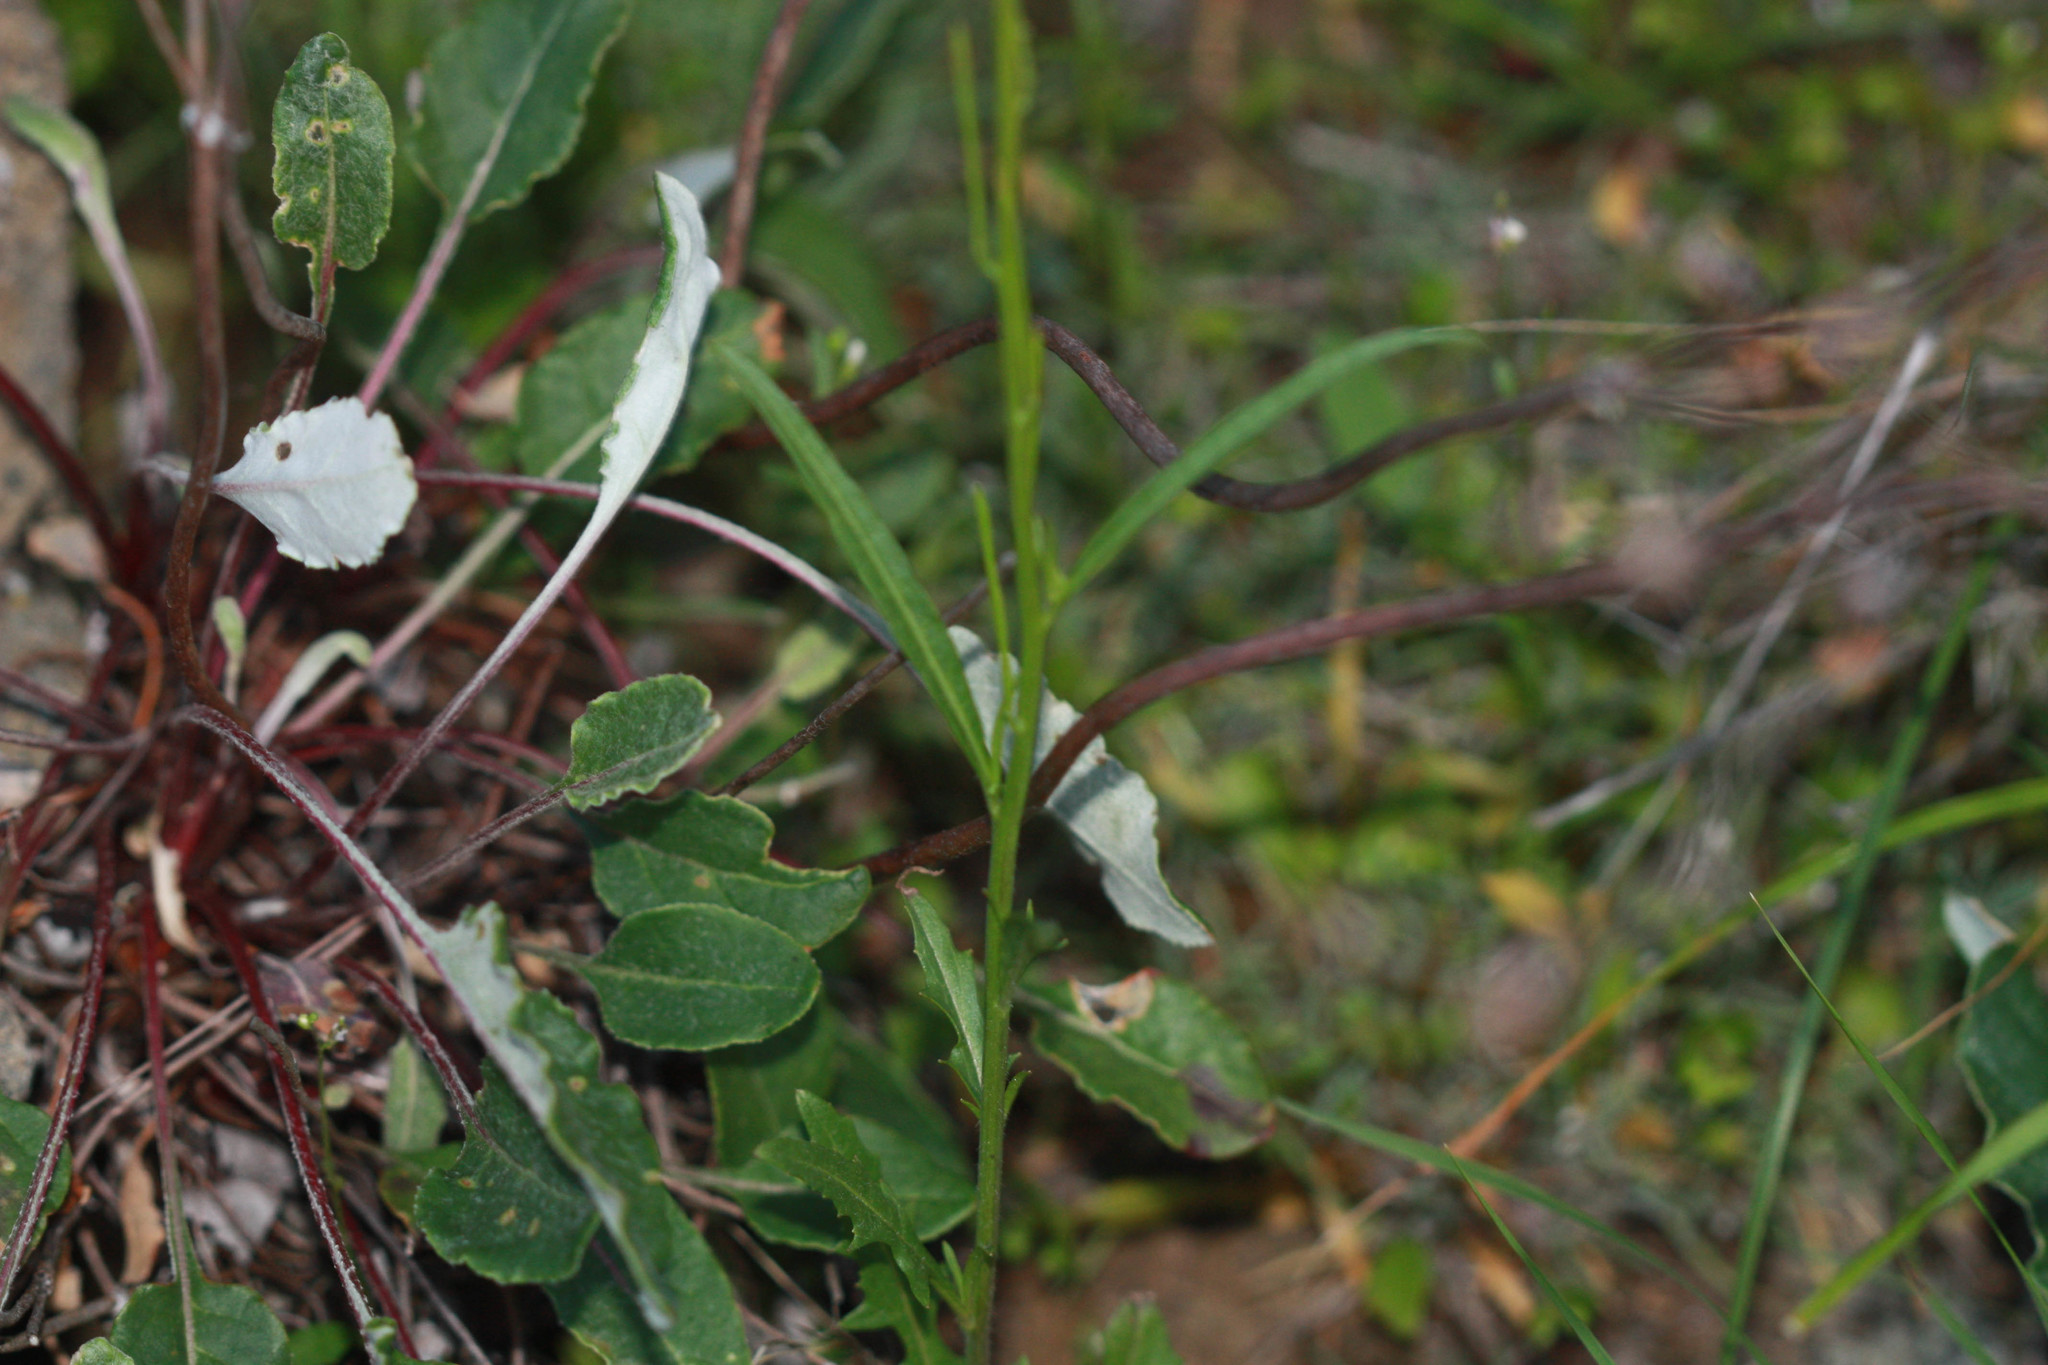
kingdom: Plantae
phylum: Tracheophyta
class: Magnoliopsida
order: Caryophyllales
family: Polygonaceae
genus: Eriogonum
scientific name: Eriogonum nudum
